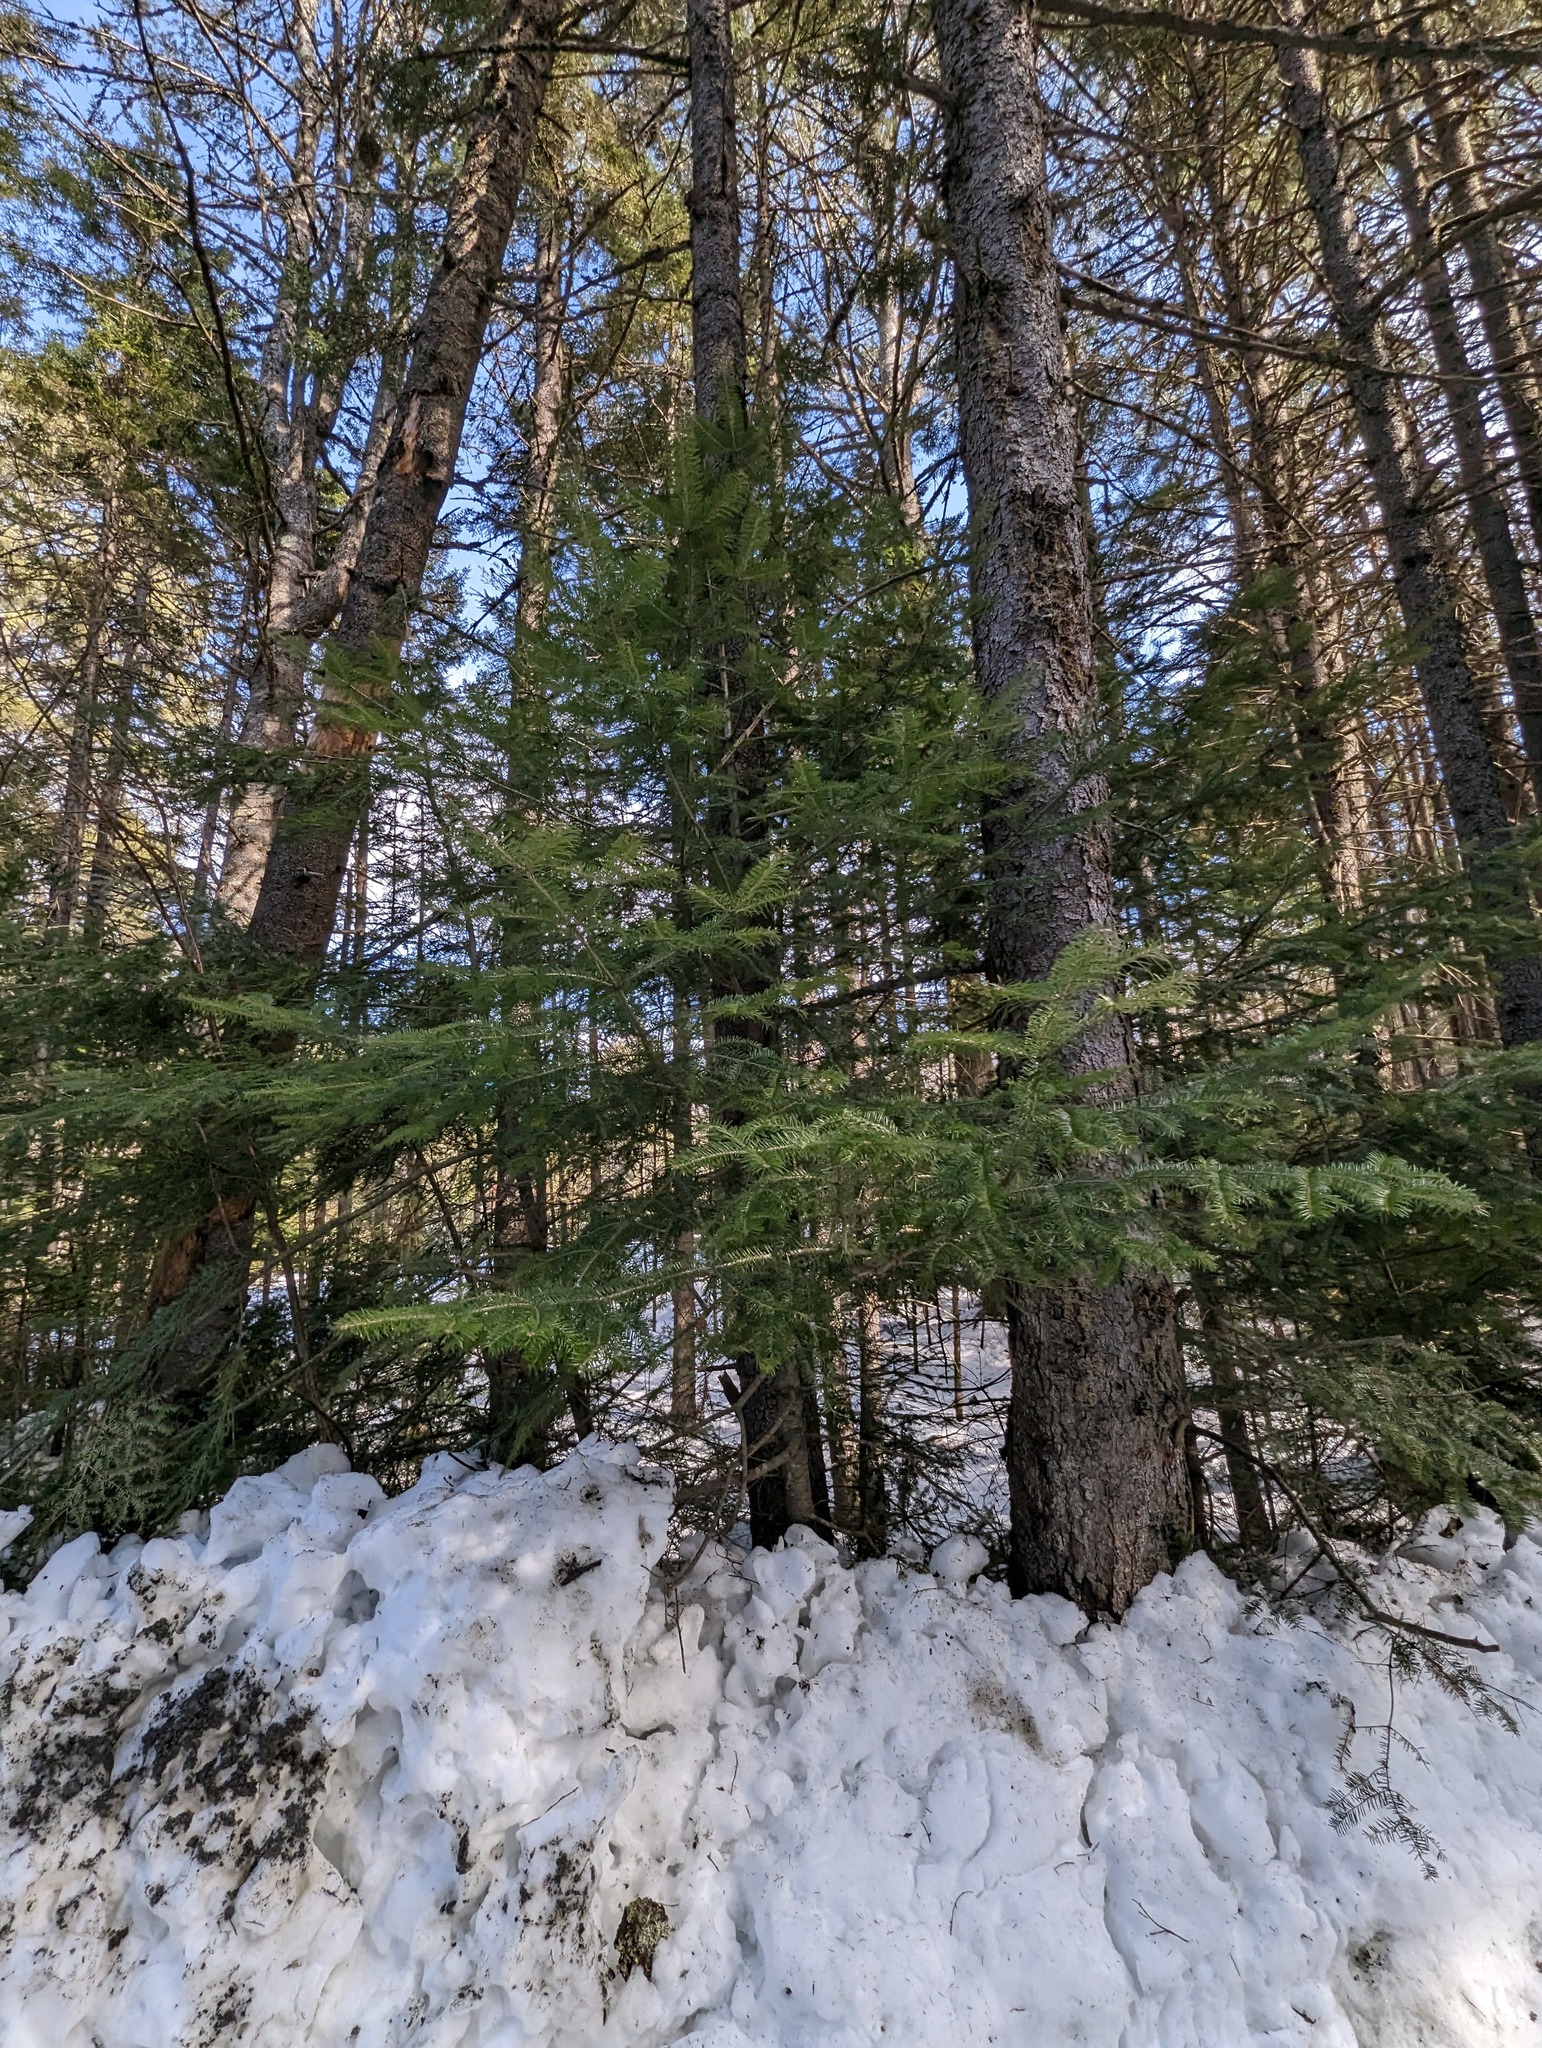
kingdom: Plantae
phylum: Tracheophyta
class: Pinopsida
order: Pinales
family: Pinaceae
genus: Abies
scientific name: Abies balsamea
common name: Balsam fir
